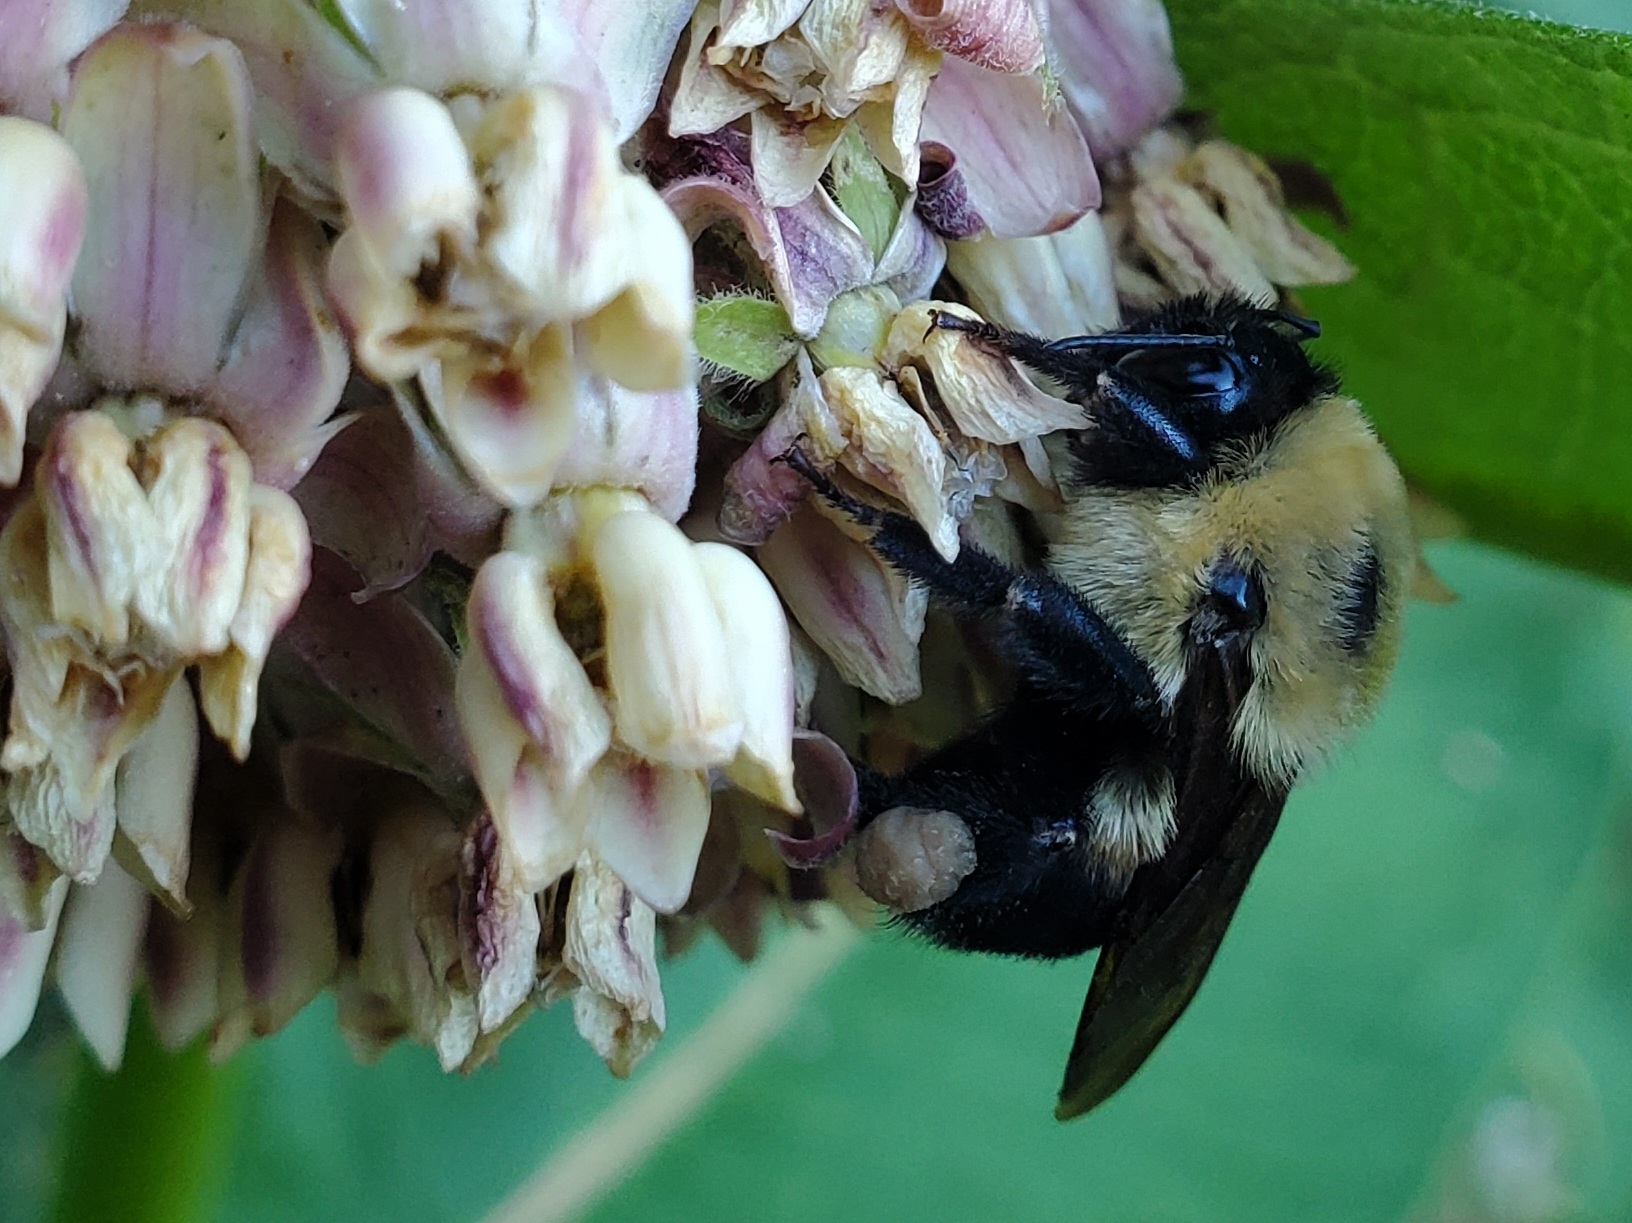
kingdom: Animalia
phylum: Arthropoda
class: Insecta
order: Hymenoptera
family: Apidae
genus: Bombus
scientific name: Bombus griseocollis
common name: Brown-belted bumble bee
